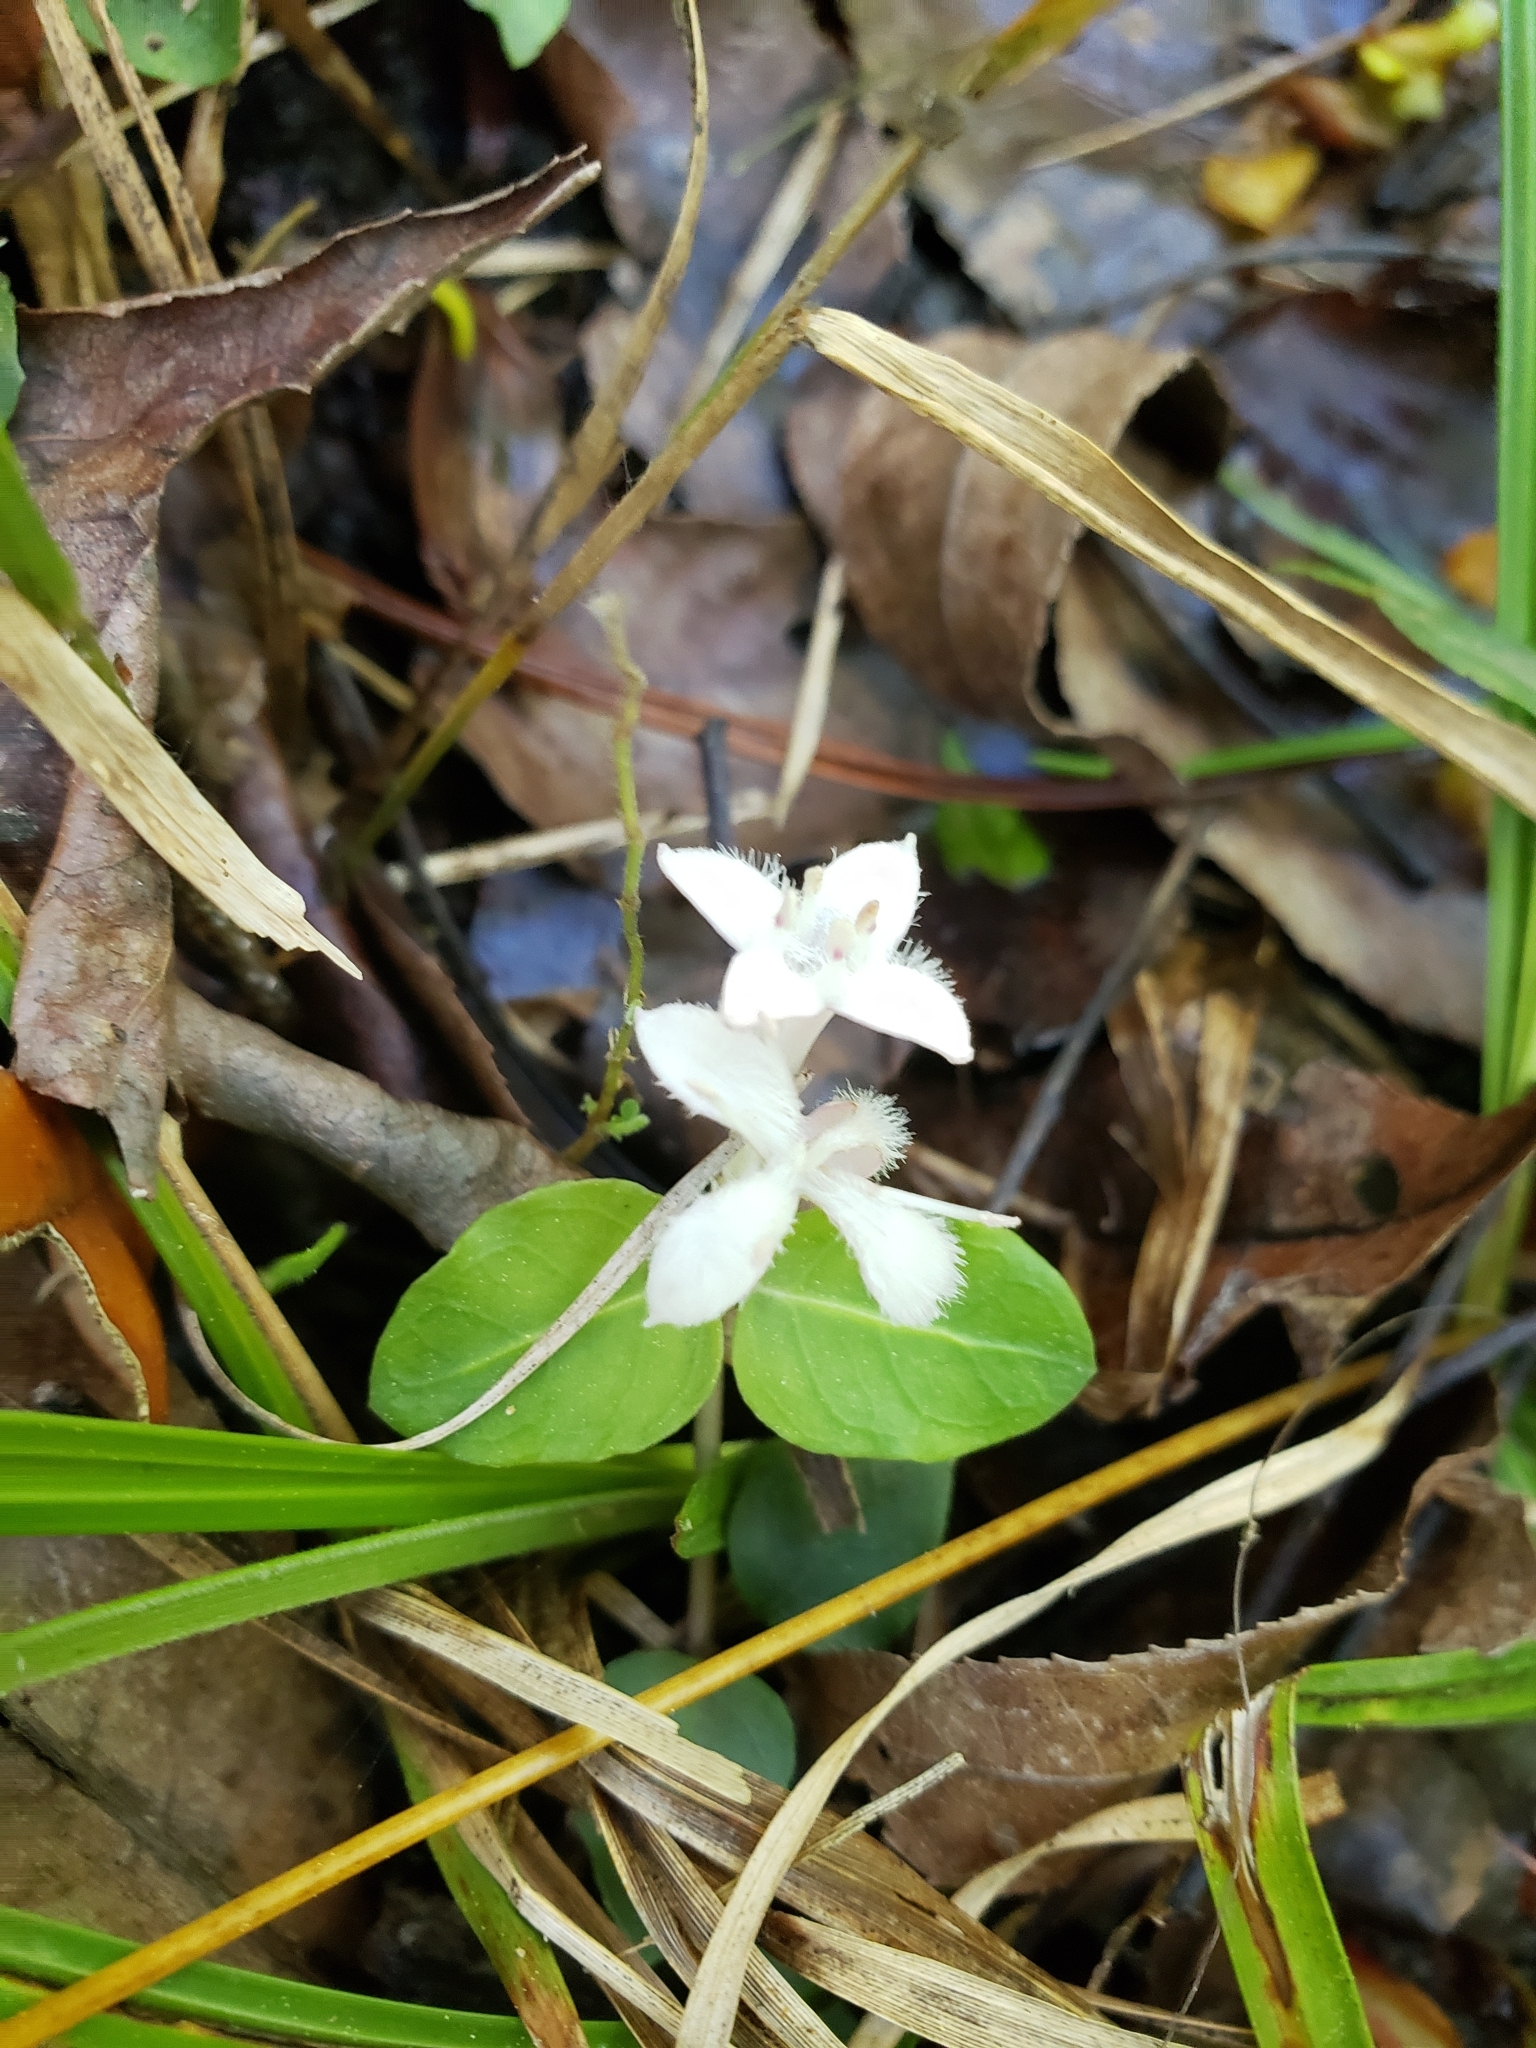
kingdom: Plantae
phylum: Tracheophyta
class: Magnoliopsida
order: Gentianales
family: Rubiaceae
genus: Mitchella
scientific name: Mitchella repens
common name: Partridge-berry
